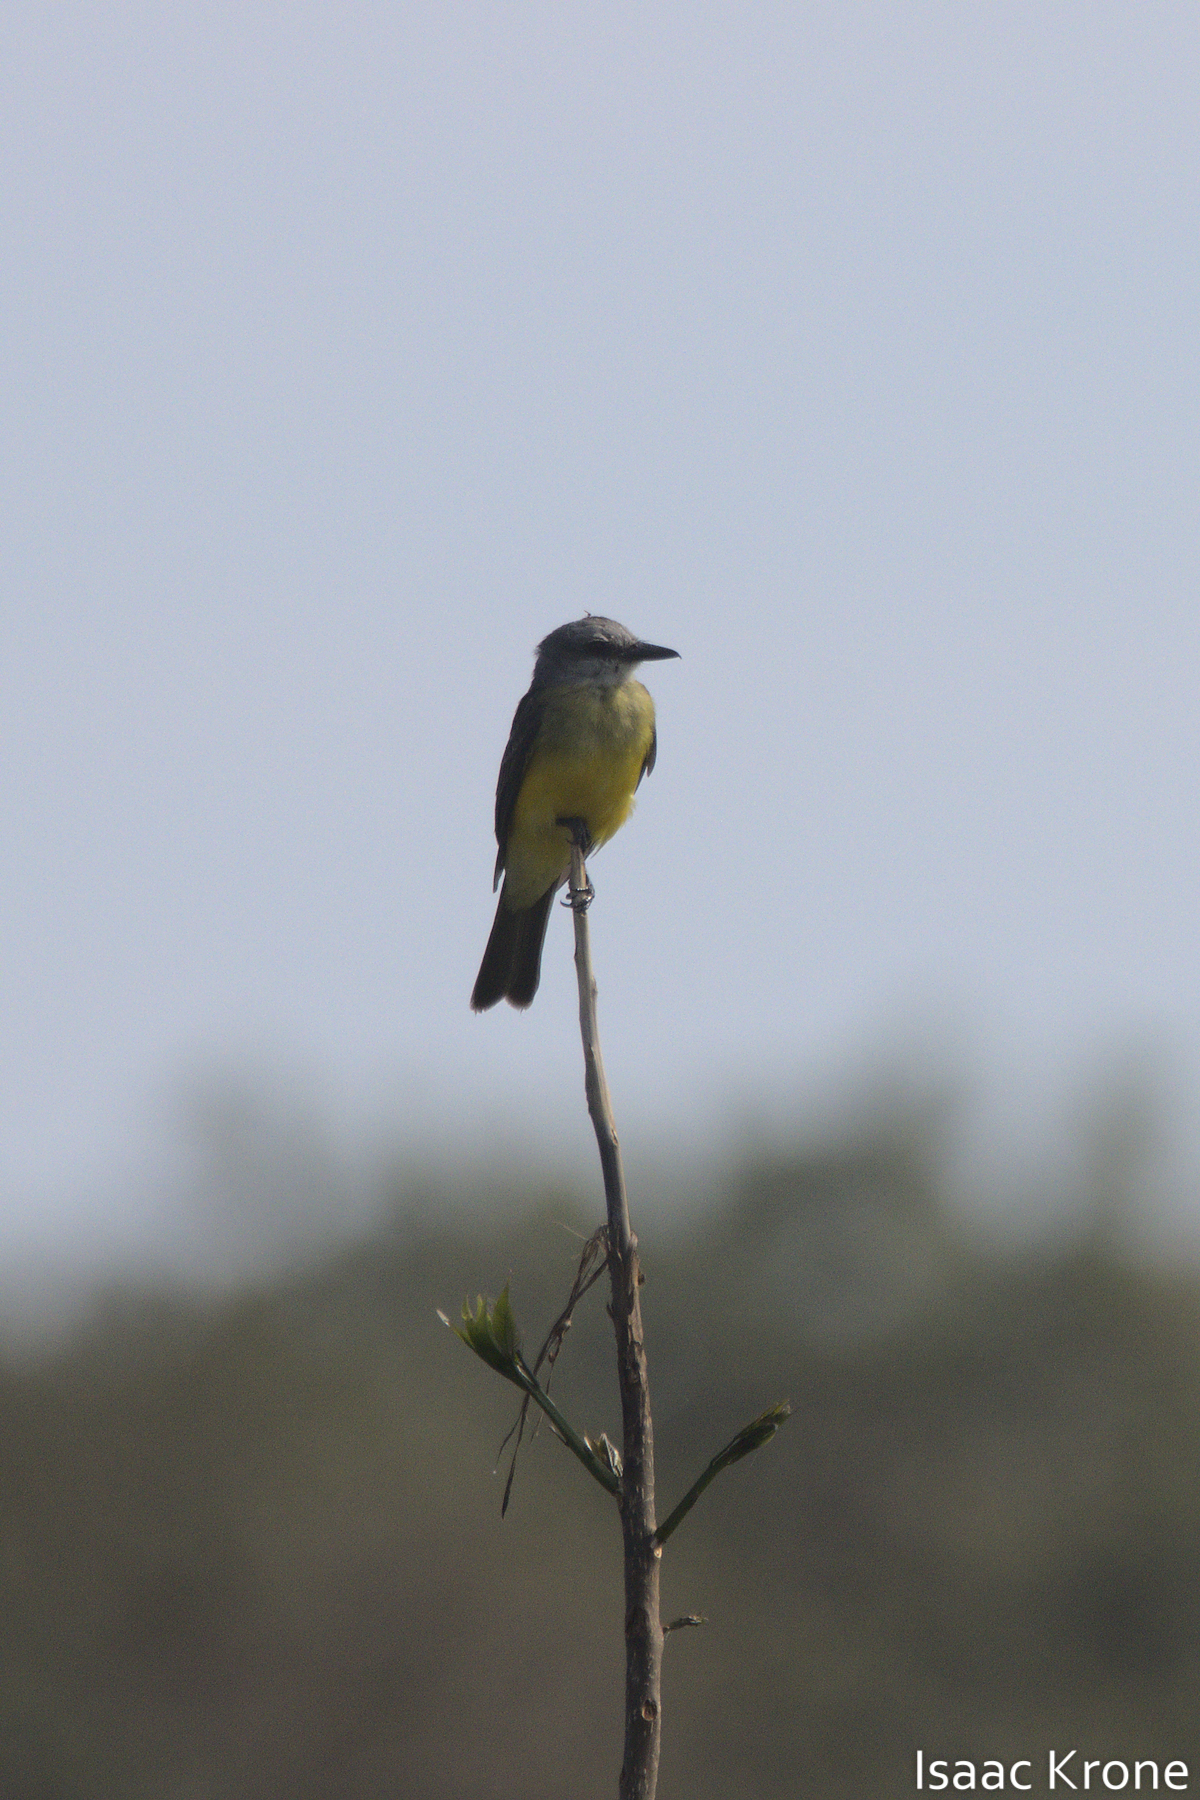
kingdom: Animalia
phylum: Chordata
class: Aves
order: Passeriformes
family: Tyrannidae
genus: Tyrannus
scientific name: Tyrannus melancholicus
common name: Tropical kingbird
